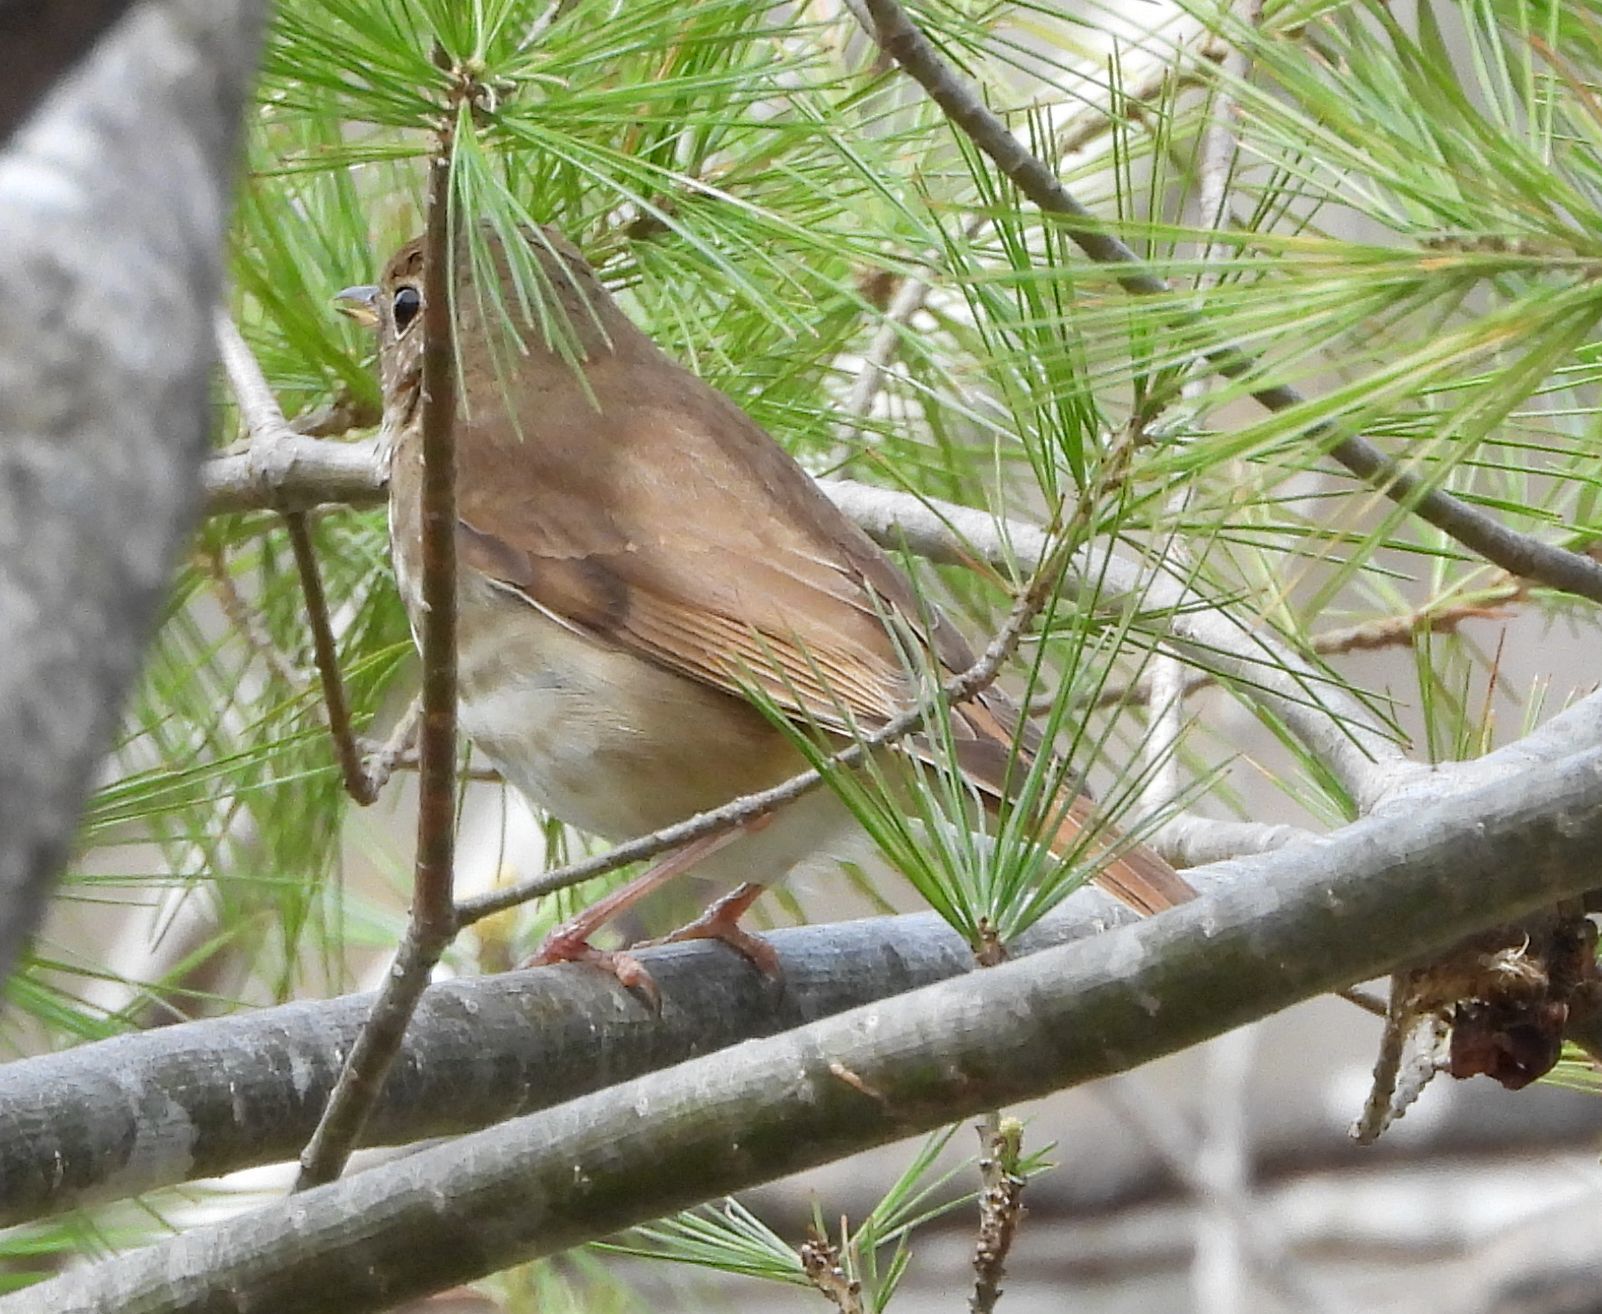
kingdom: Animalia
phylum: Chordata
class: Aves
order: Passeriformes
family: Turdidae
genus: Catharus
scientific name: Catharus guttatus
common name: Hermit thrush
